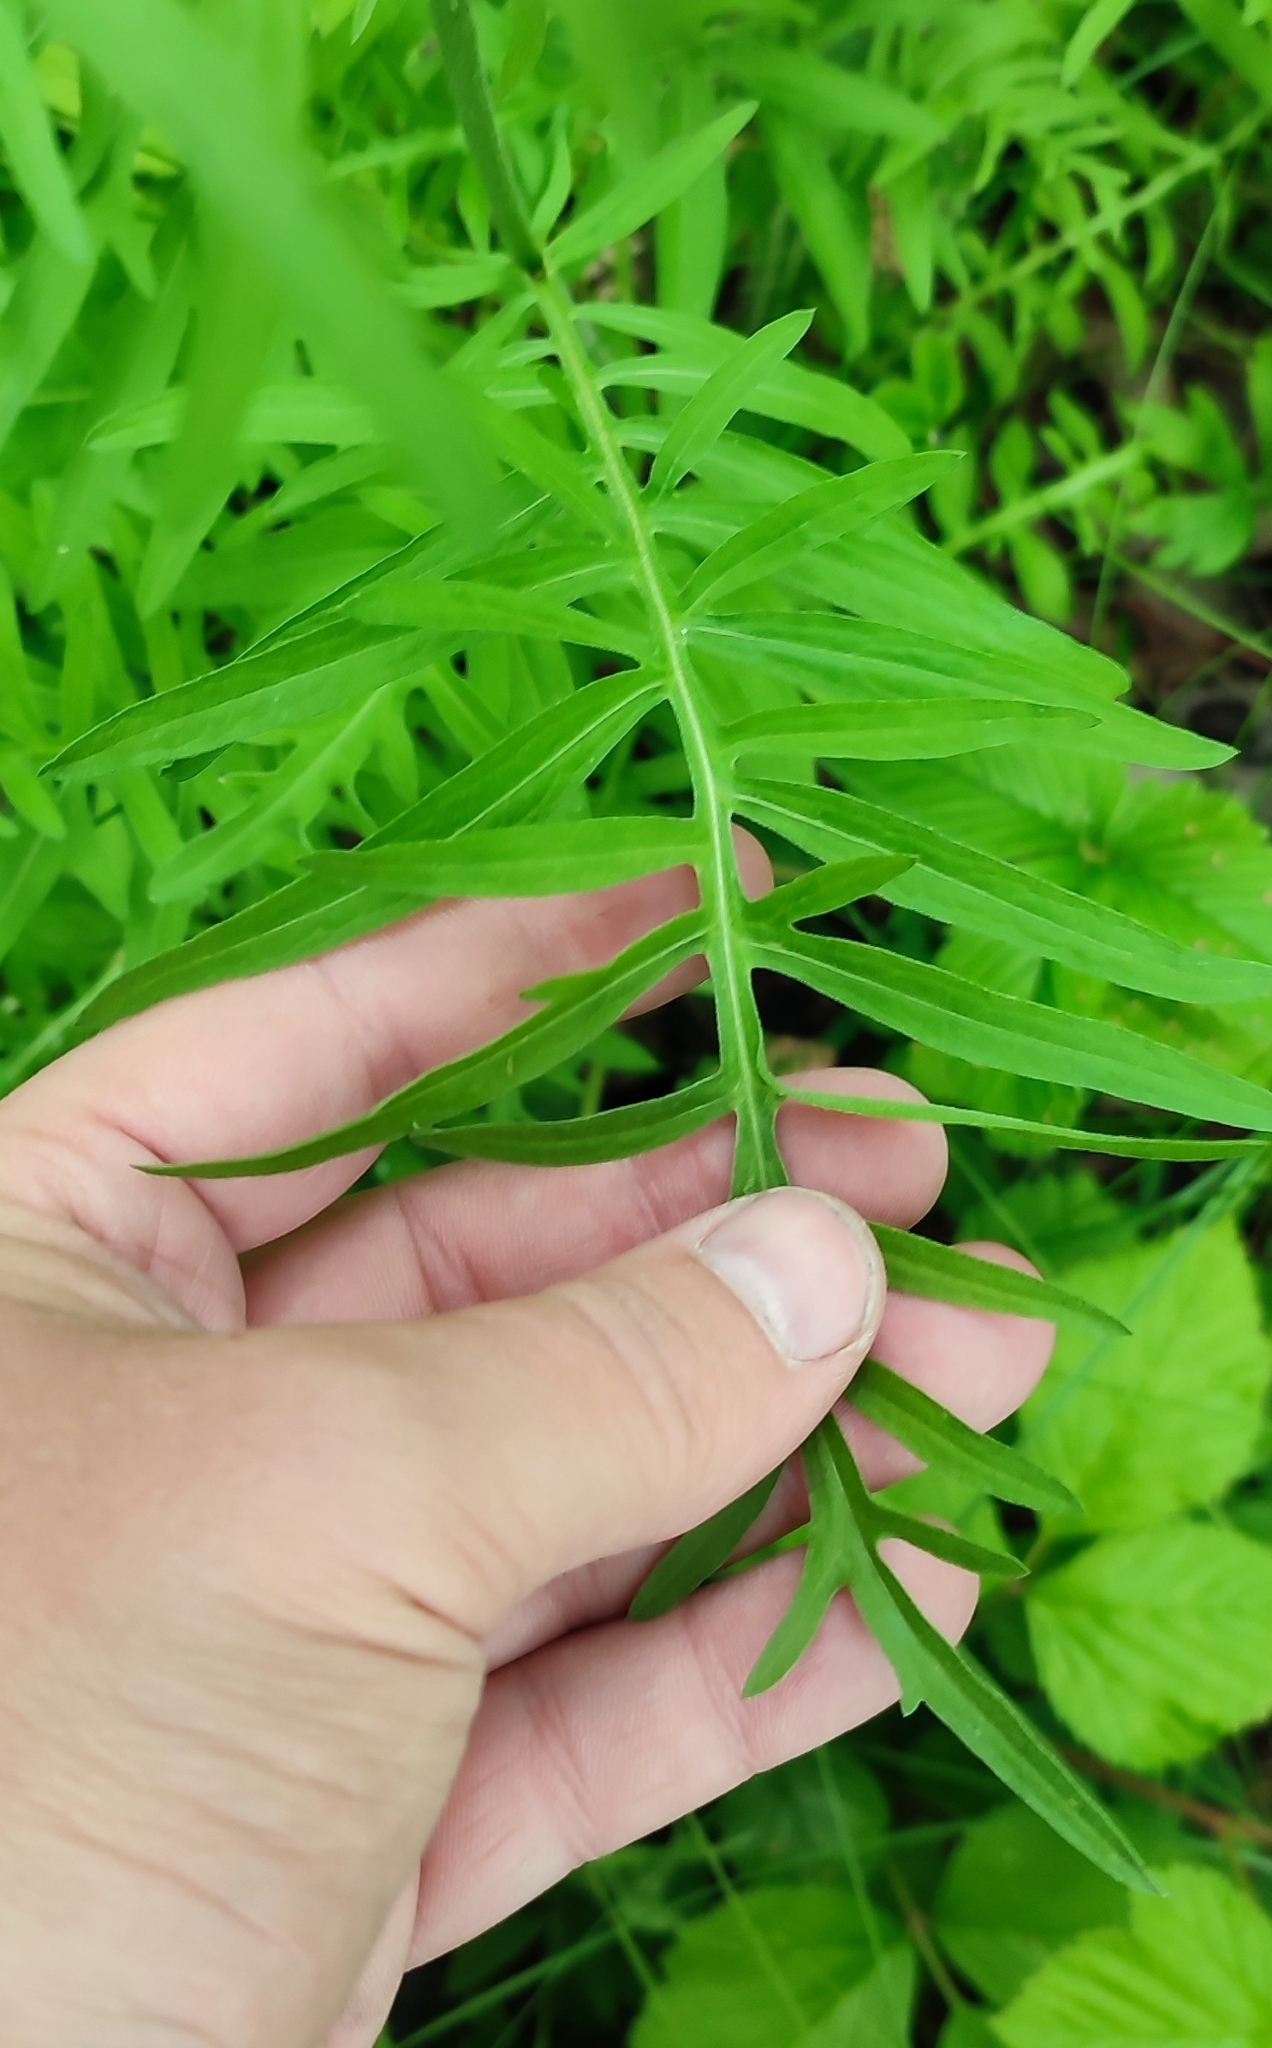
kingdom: Plantae
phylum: Tracheophyta
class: Magnoliopsida
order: Asterales
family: Asteraceae
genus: Centaurea
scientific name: Centaurea scabiosa
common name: Greater knapweed
